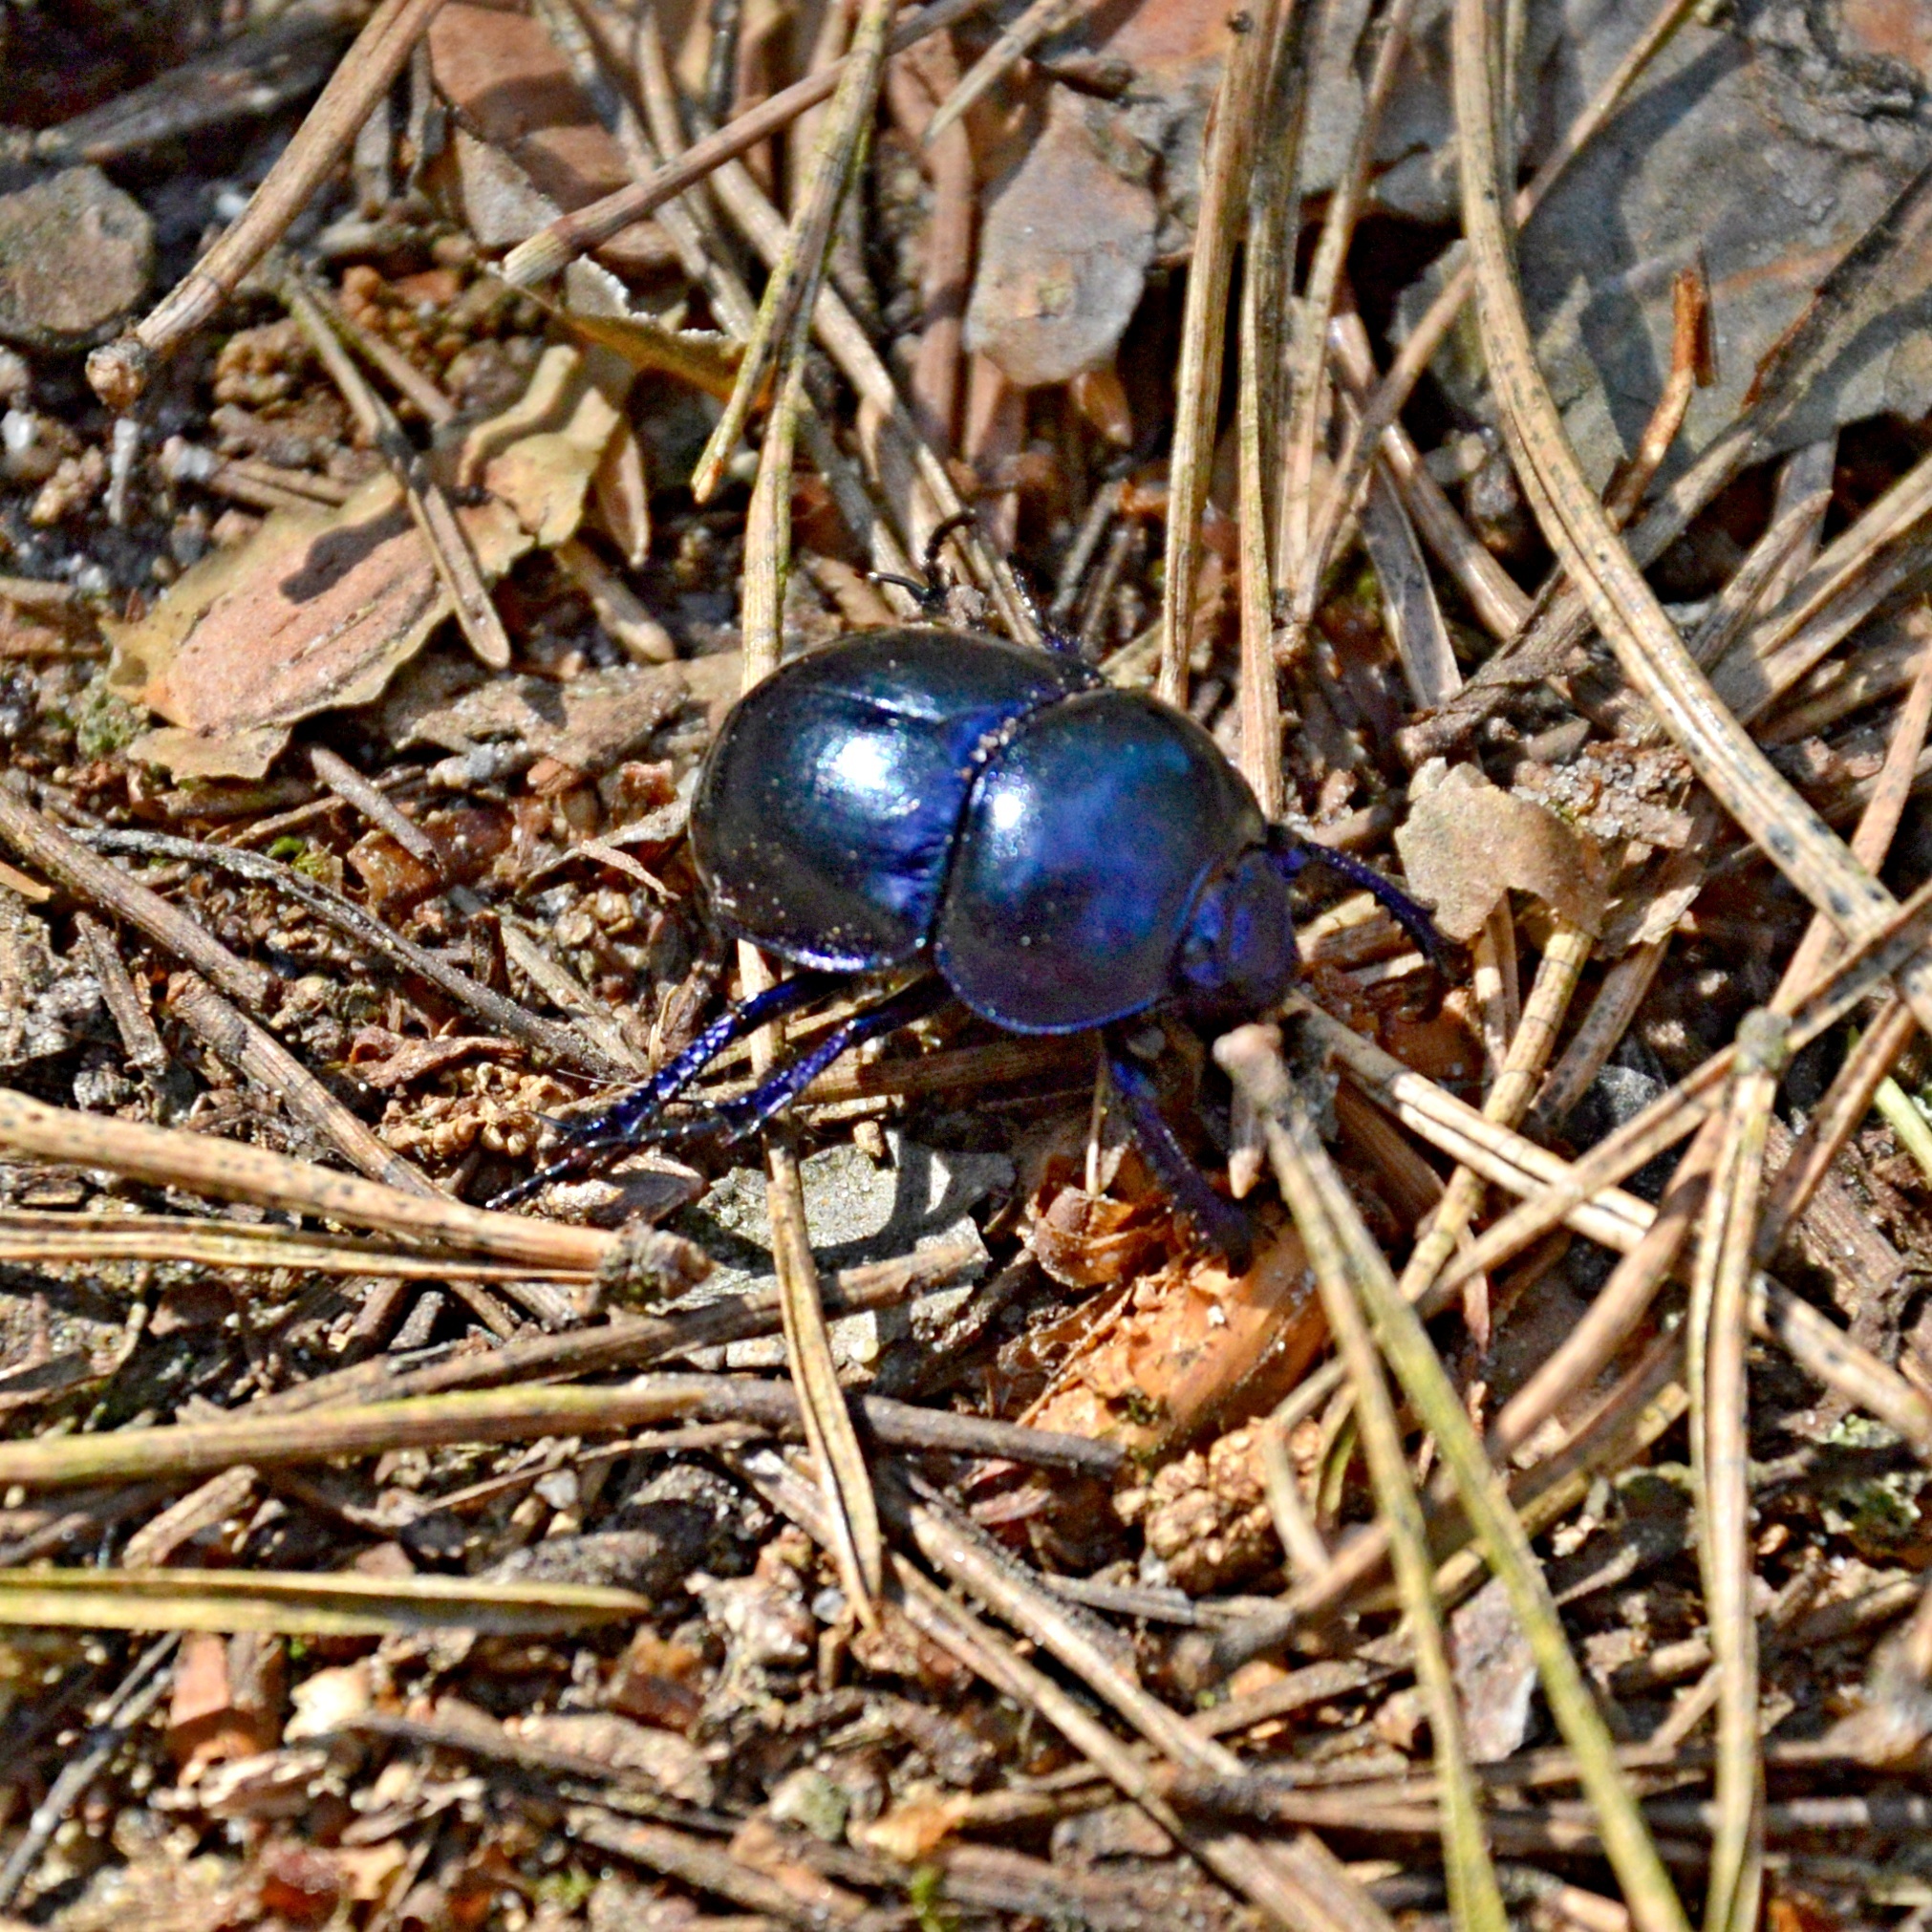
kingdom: Animalia
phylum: Arthropoda
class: Insecta
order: Coleoptera
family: Geotrupidae
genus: Trypocopris
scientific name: Trypocopris vernalis
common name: Spring dumbledor
